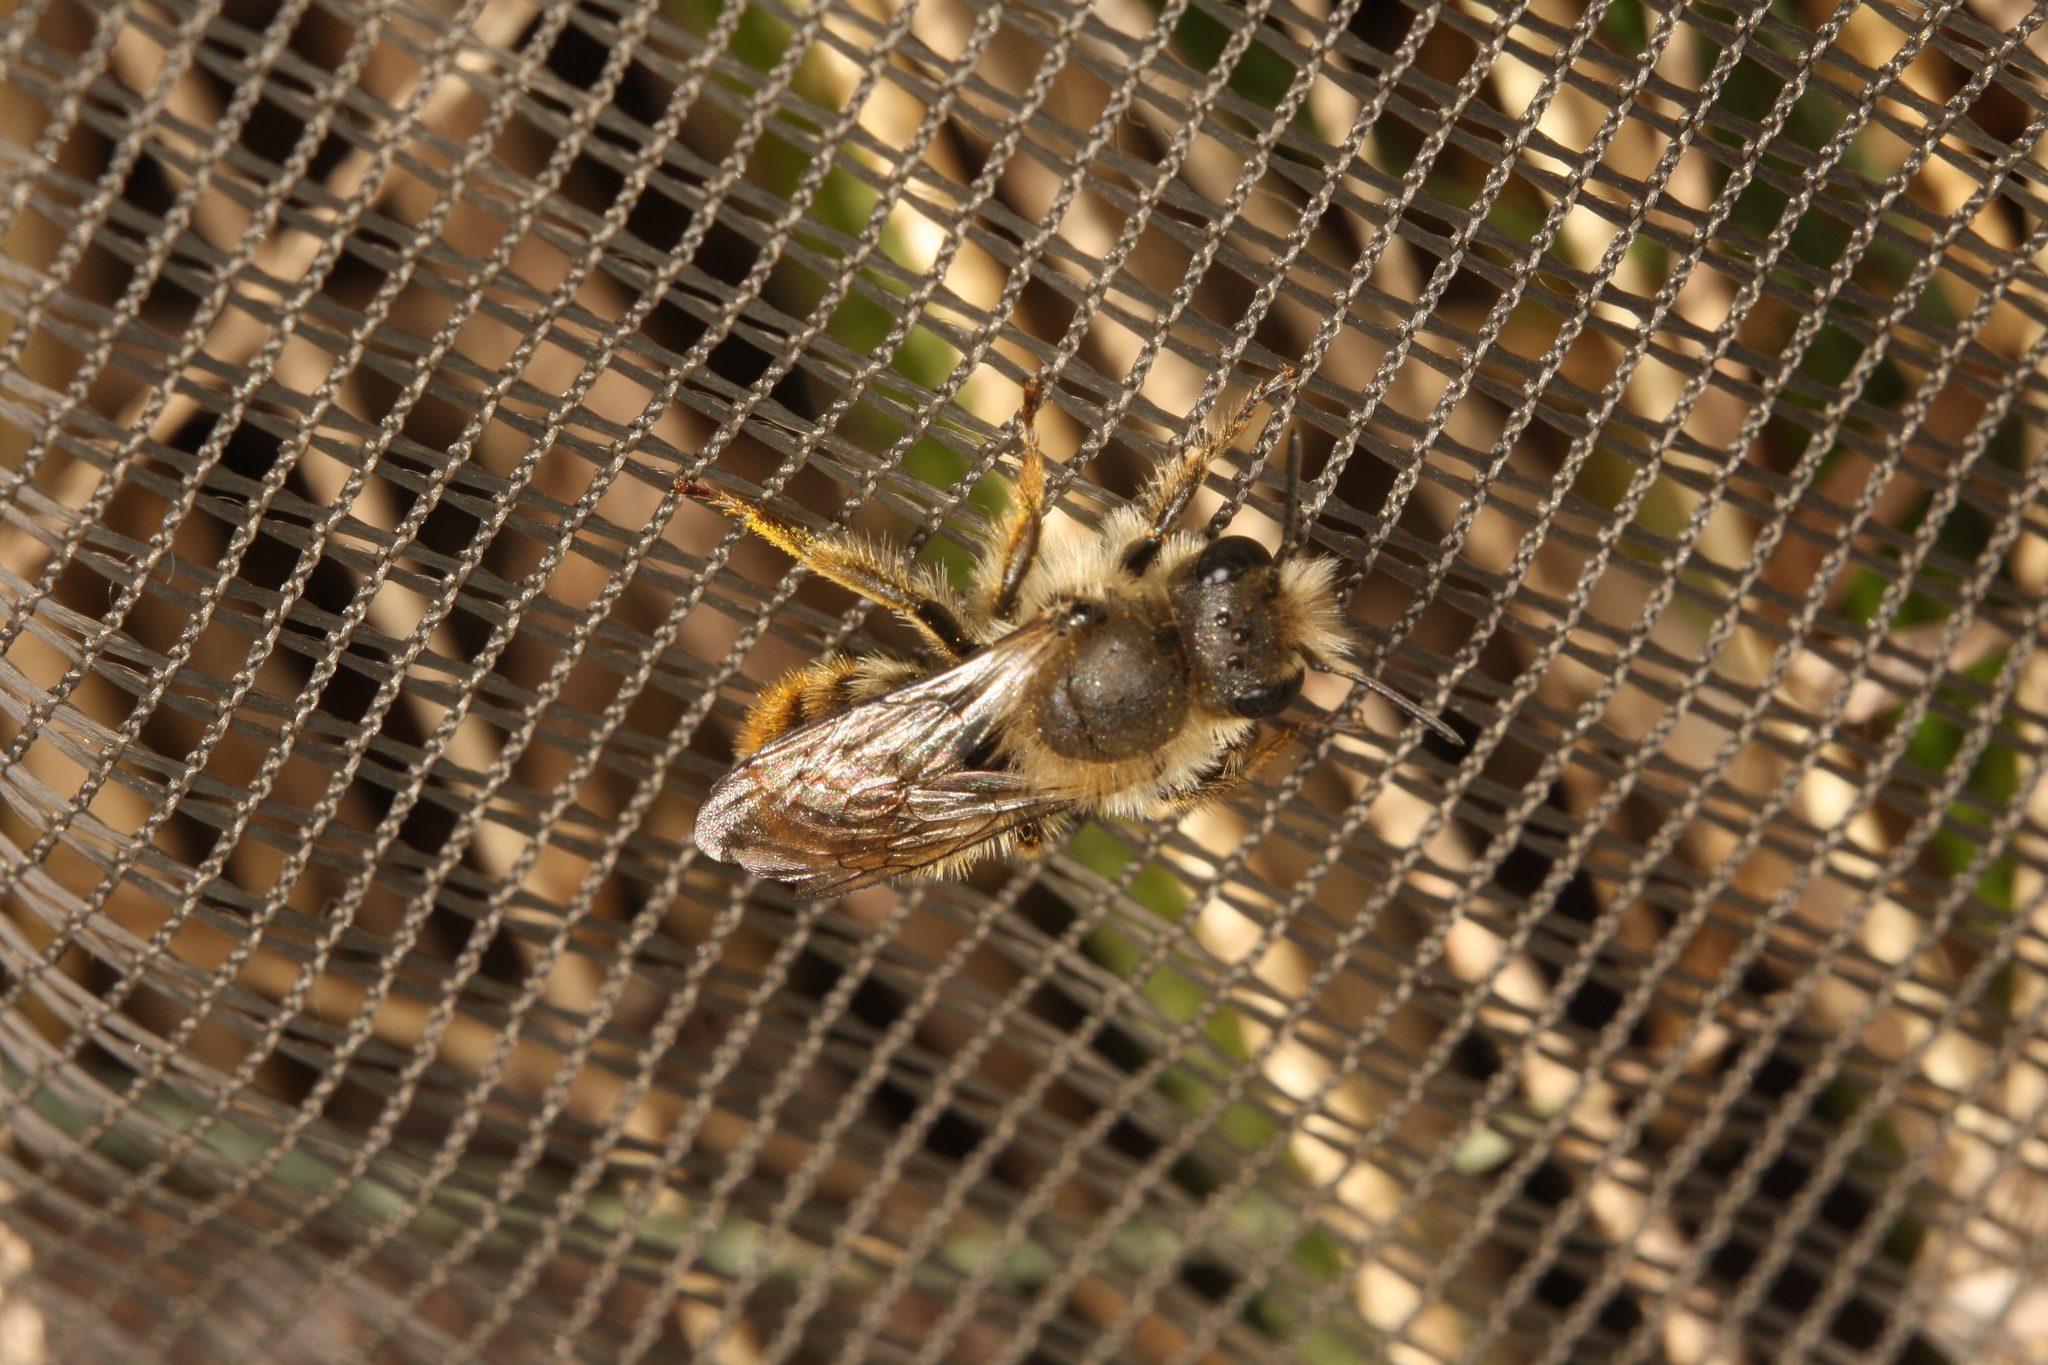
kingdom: Animalia
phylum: Arthropoda
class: Insecta
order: Hymenoptera
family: Megachilidae
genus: Osmia
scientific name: Osmia bicolor
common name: Red-tailed mason bee
